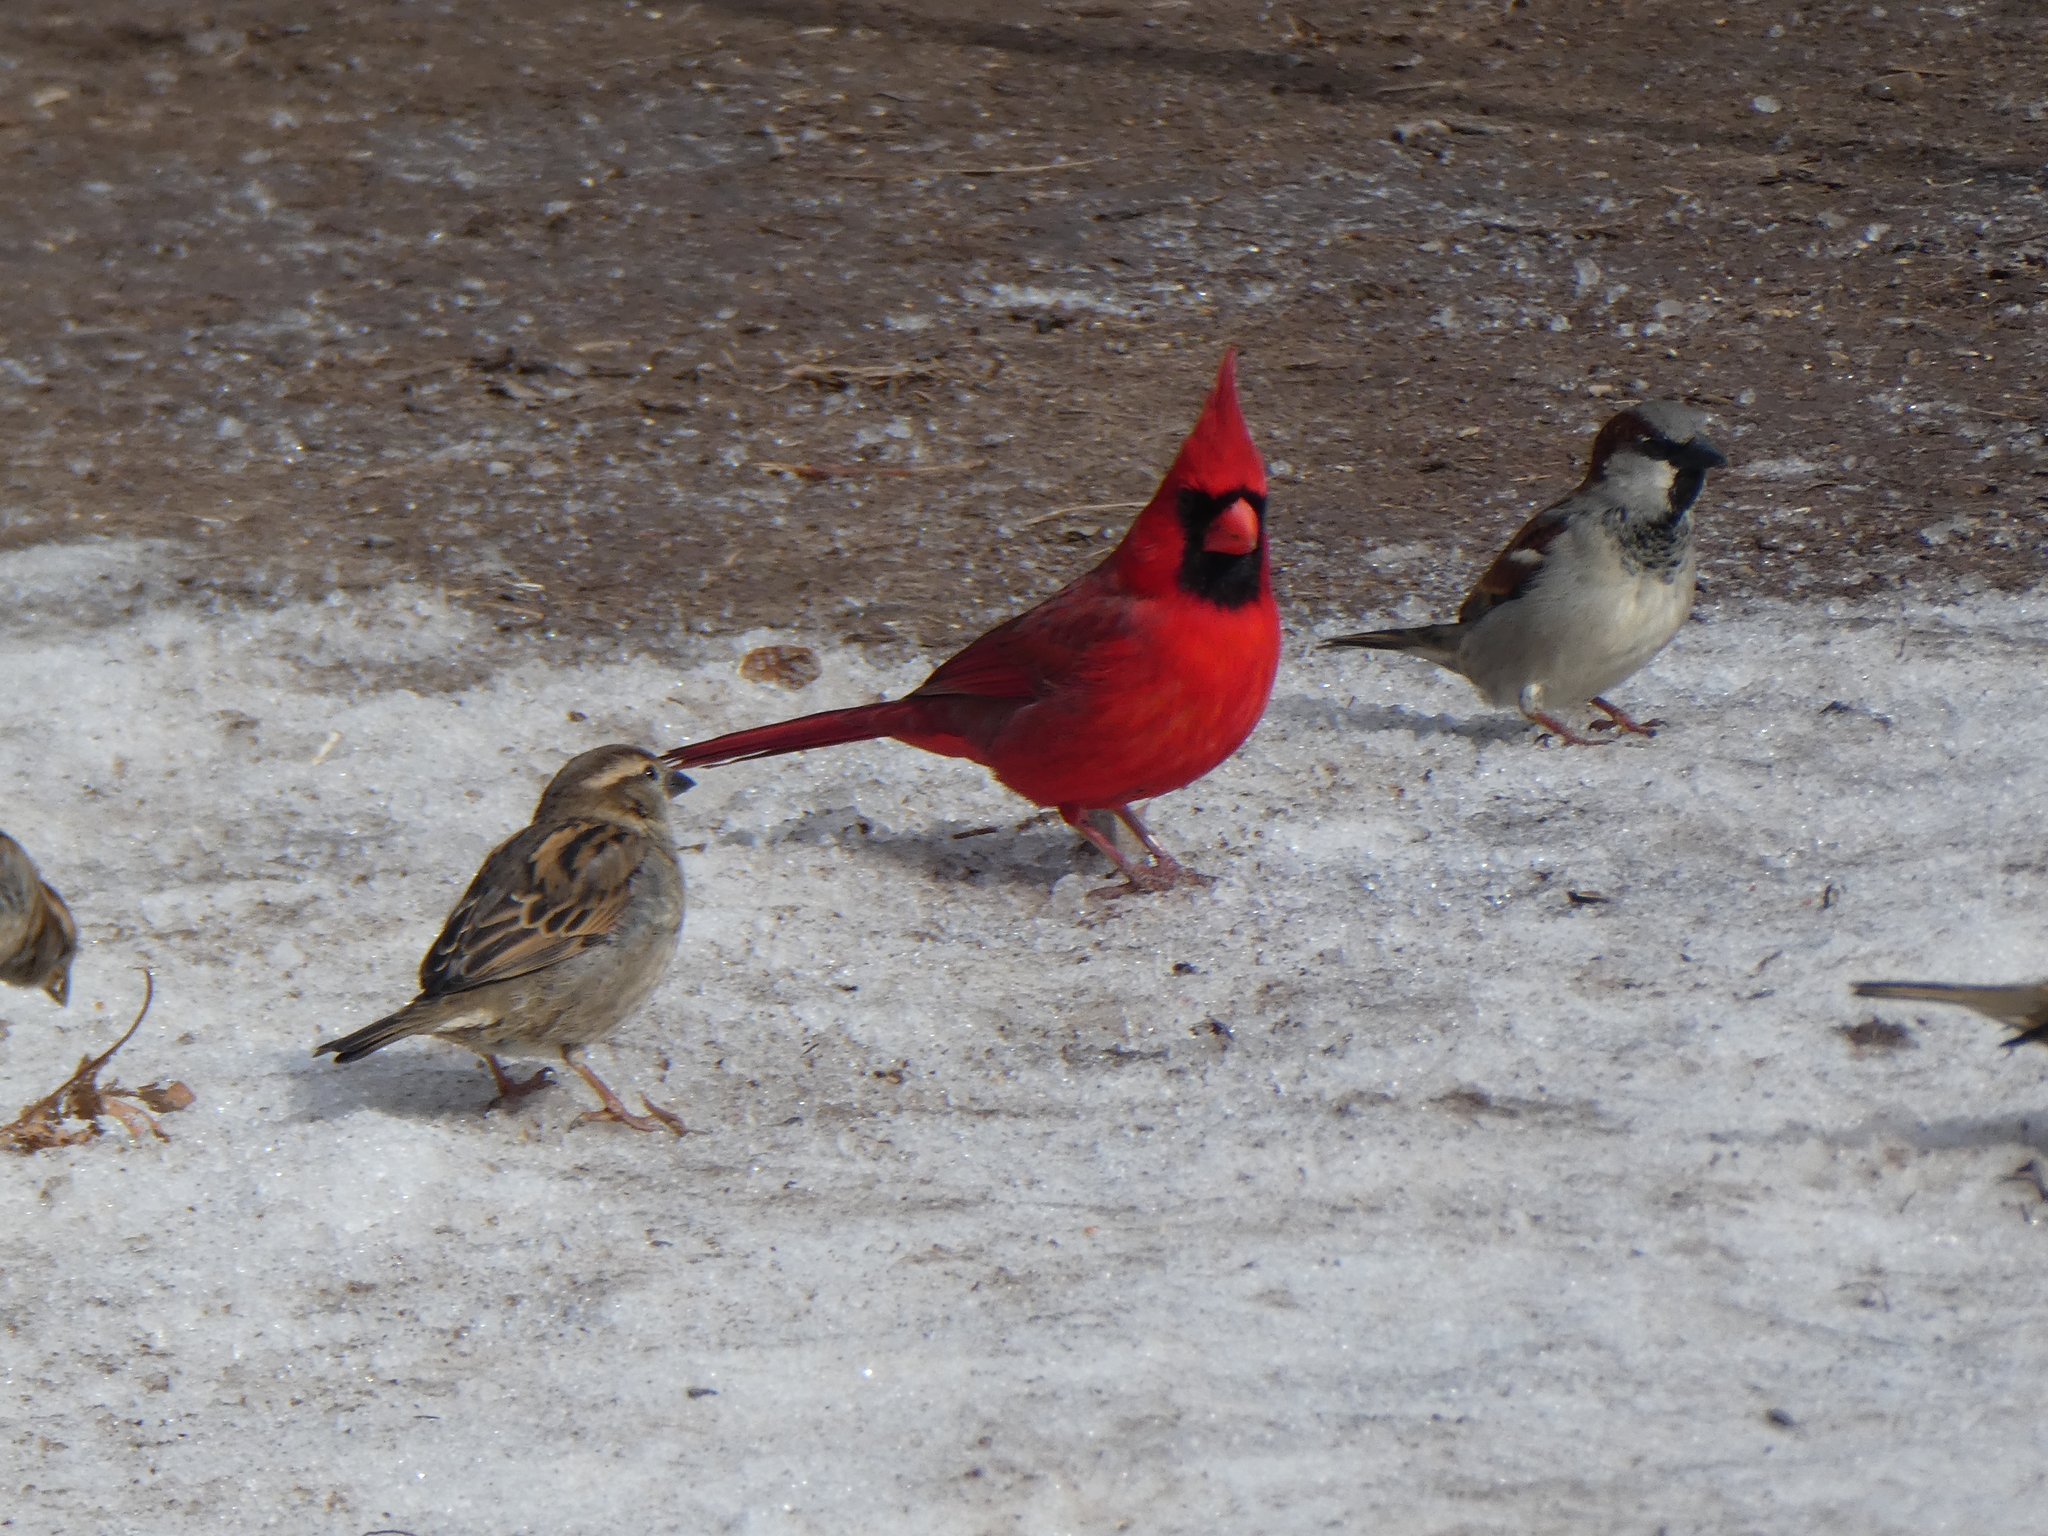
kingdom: Animalia
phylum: Chordata
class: Aves
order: Passeriformes
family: Cardinalidae
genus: Cardinalis
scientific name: Cardinalis cardinalis
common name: Northern cardinal
